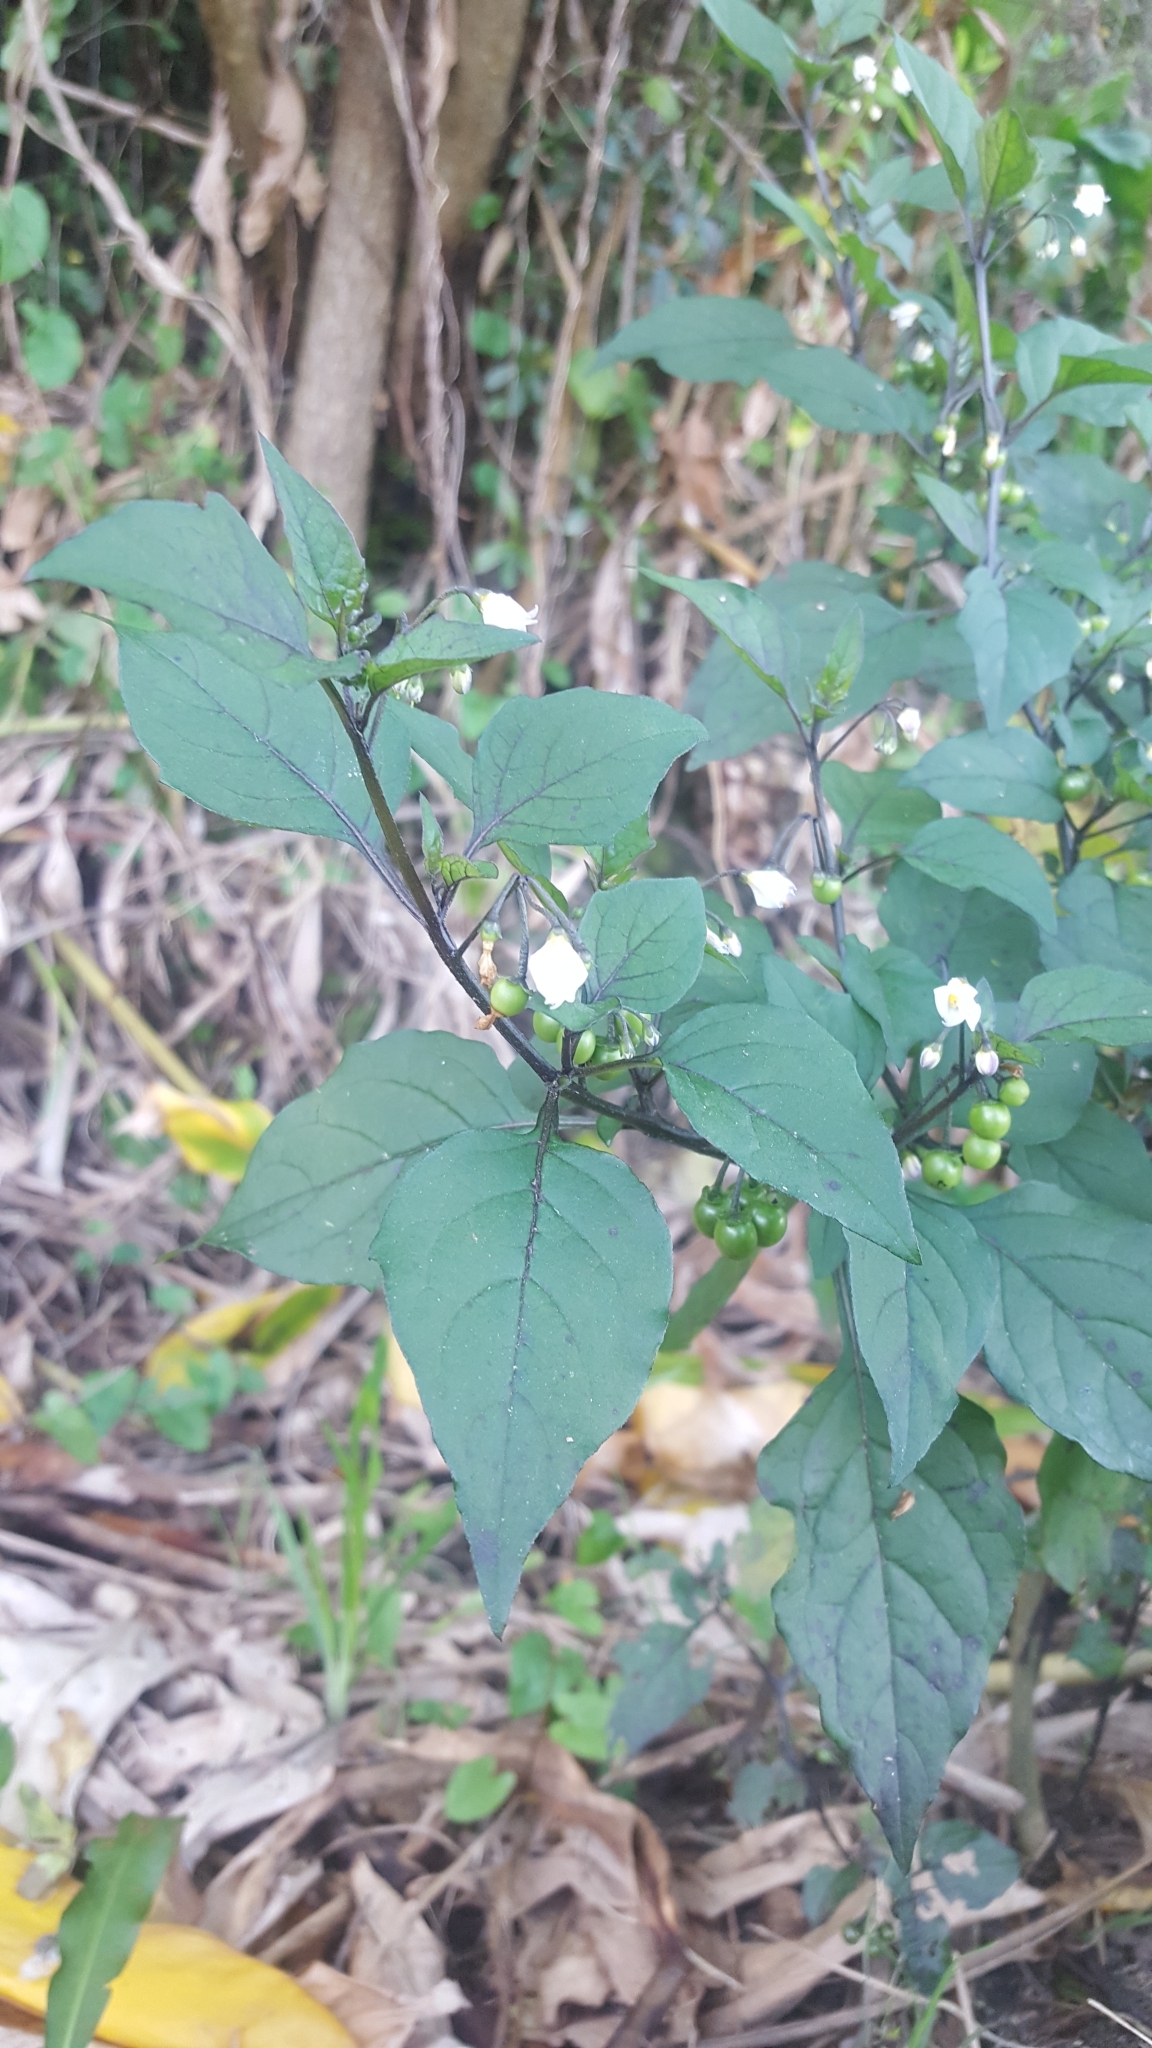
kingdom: Plantae
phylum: Tracheophyta
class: Magnoliopsida
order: Solanales
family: Solanaceae
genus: Solanum
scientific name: Solanum nigrum
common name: Black nightshade
